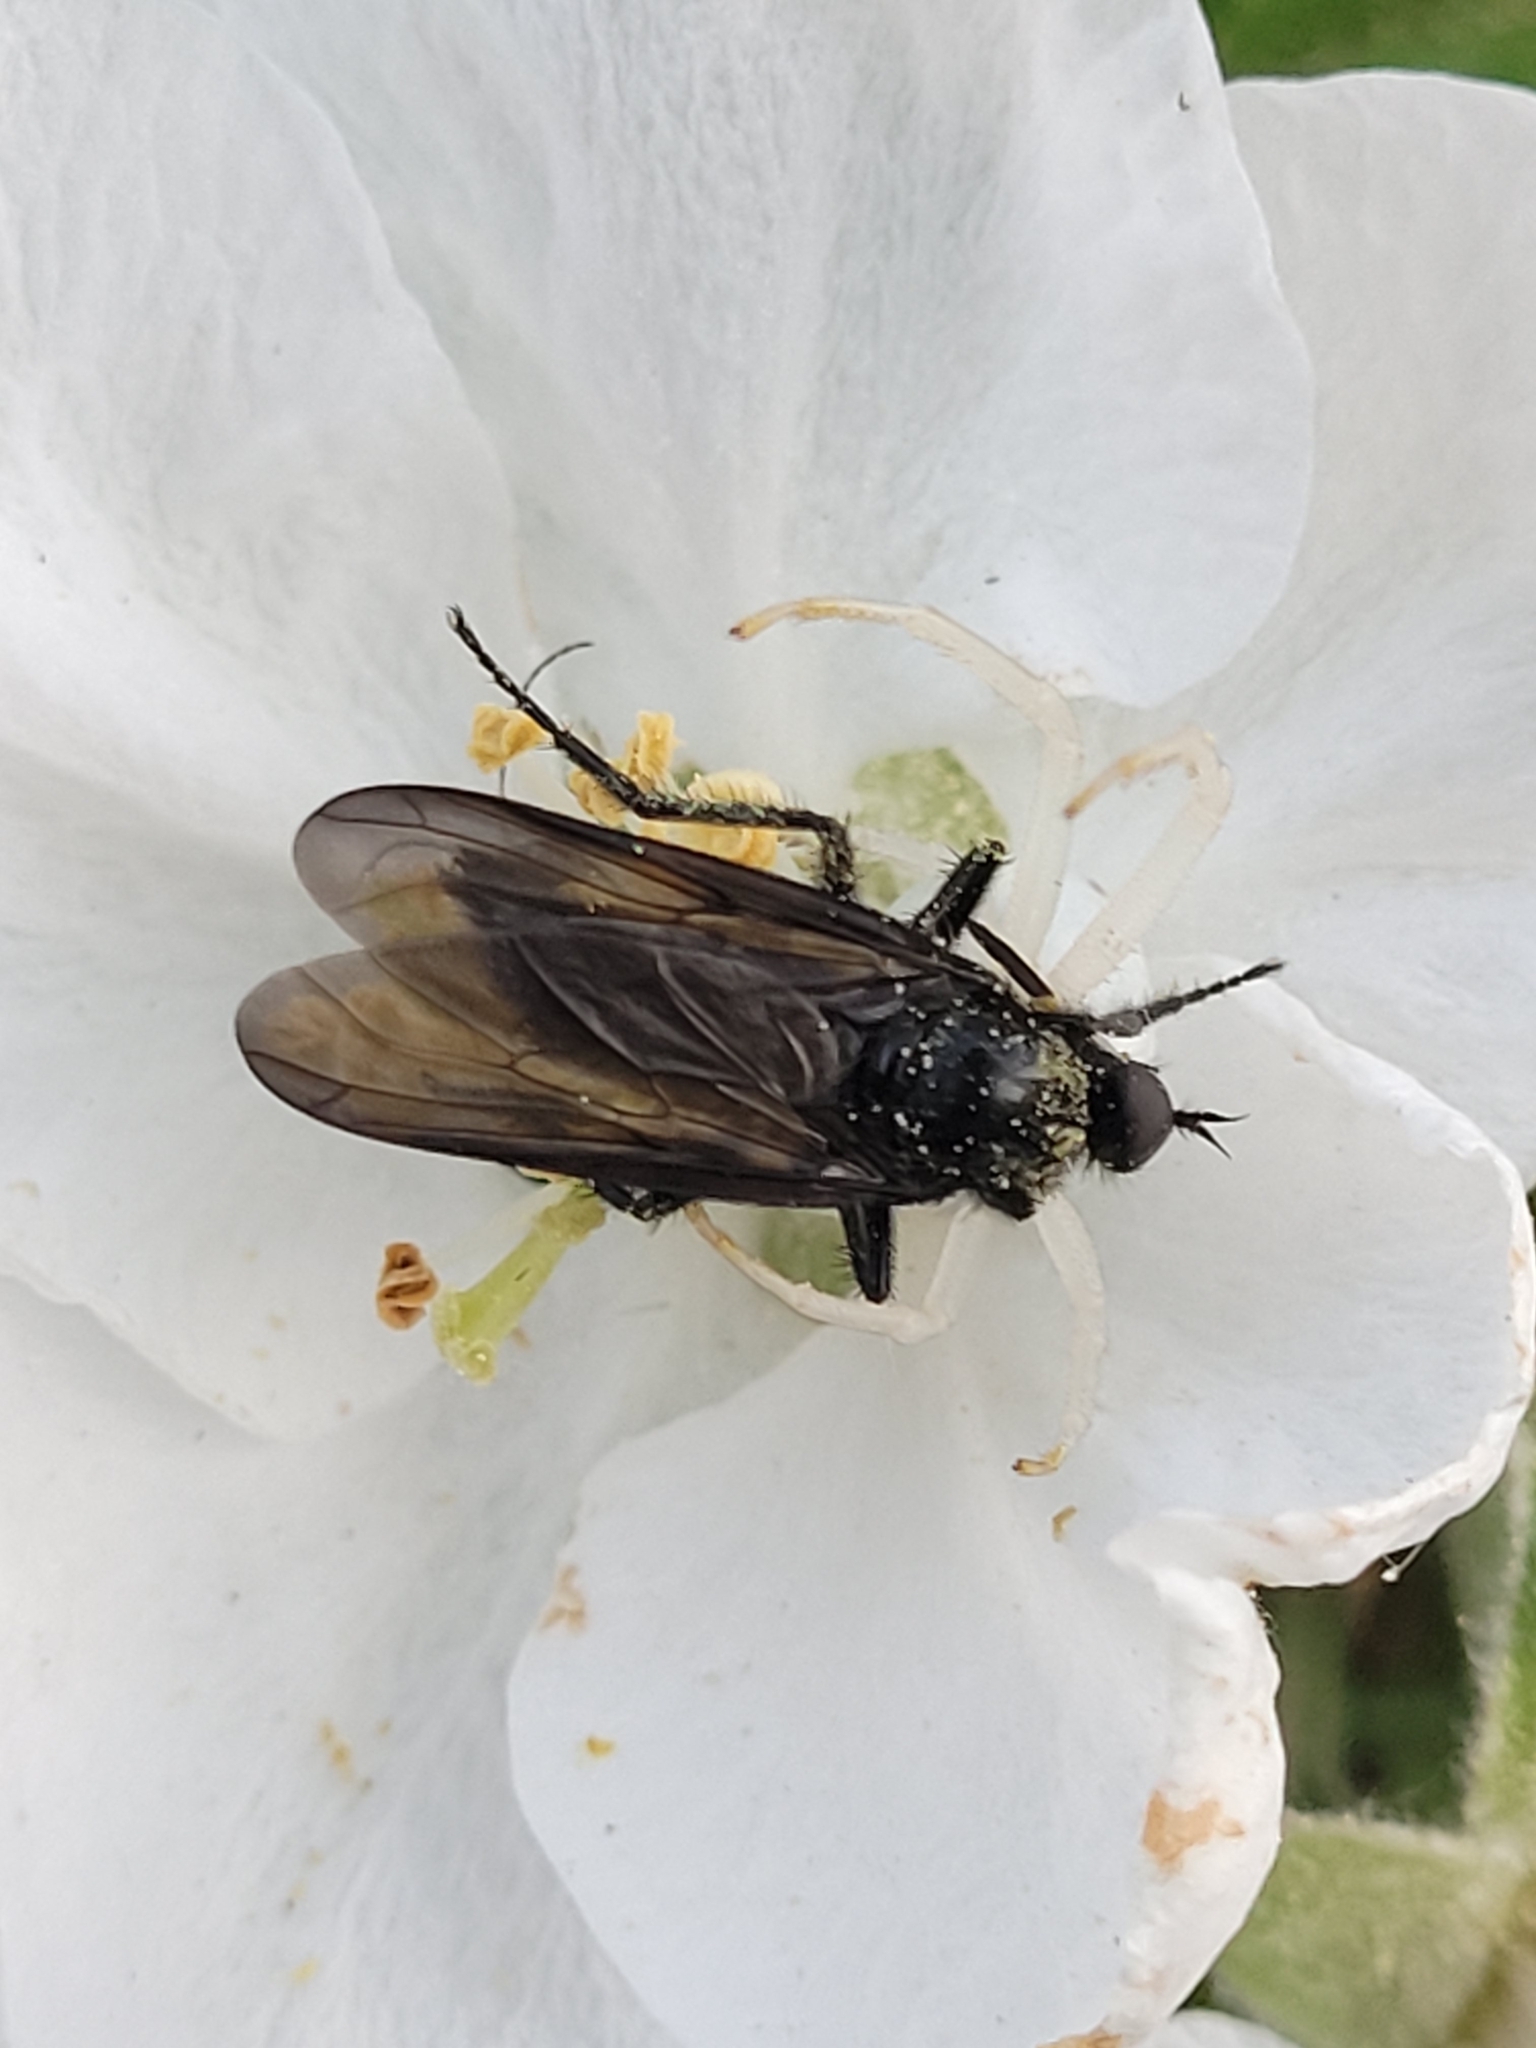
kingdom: Animalia
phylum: Arthropoda
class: Arachnida
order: Araneae
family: Thomisidae
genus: Misumena
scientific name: Misumena vatia
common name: Goldenrod crab spider
